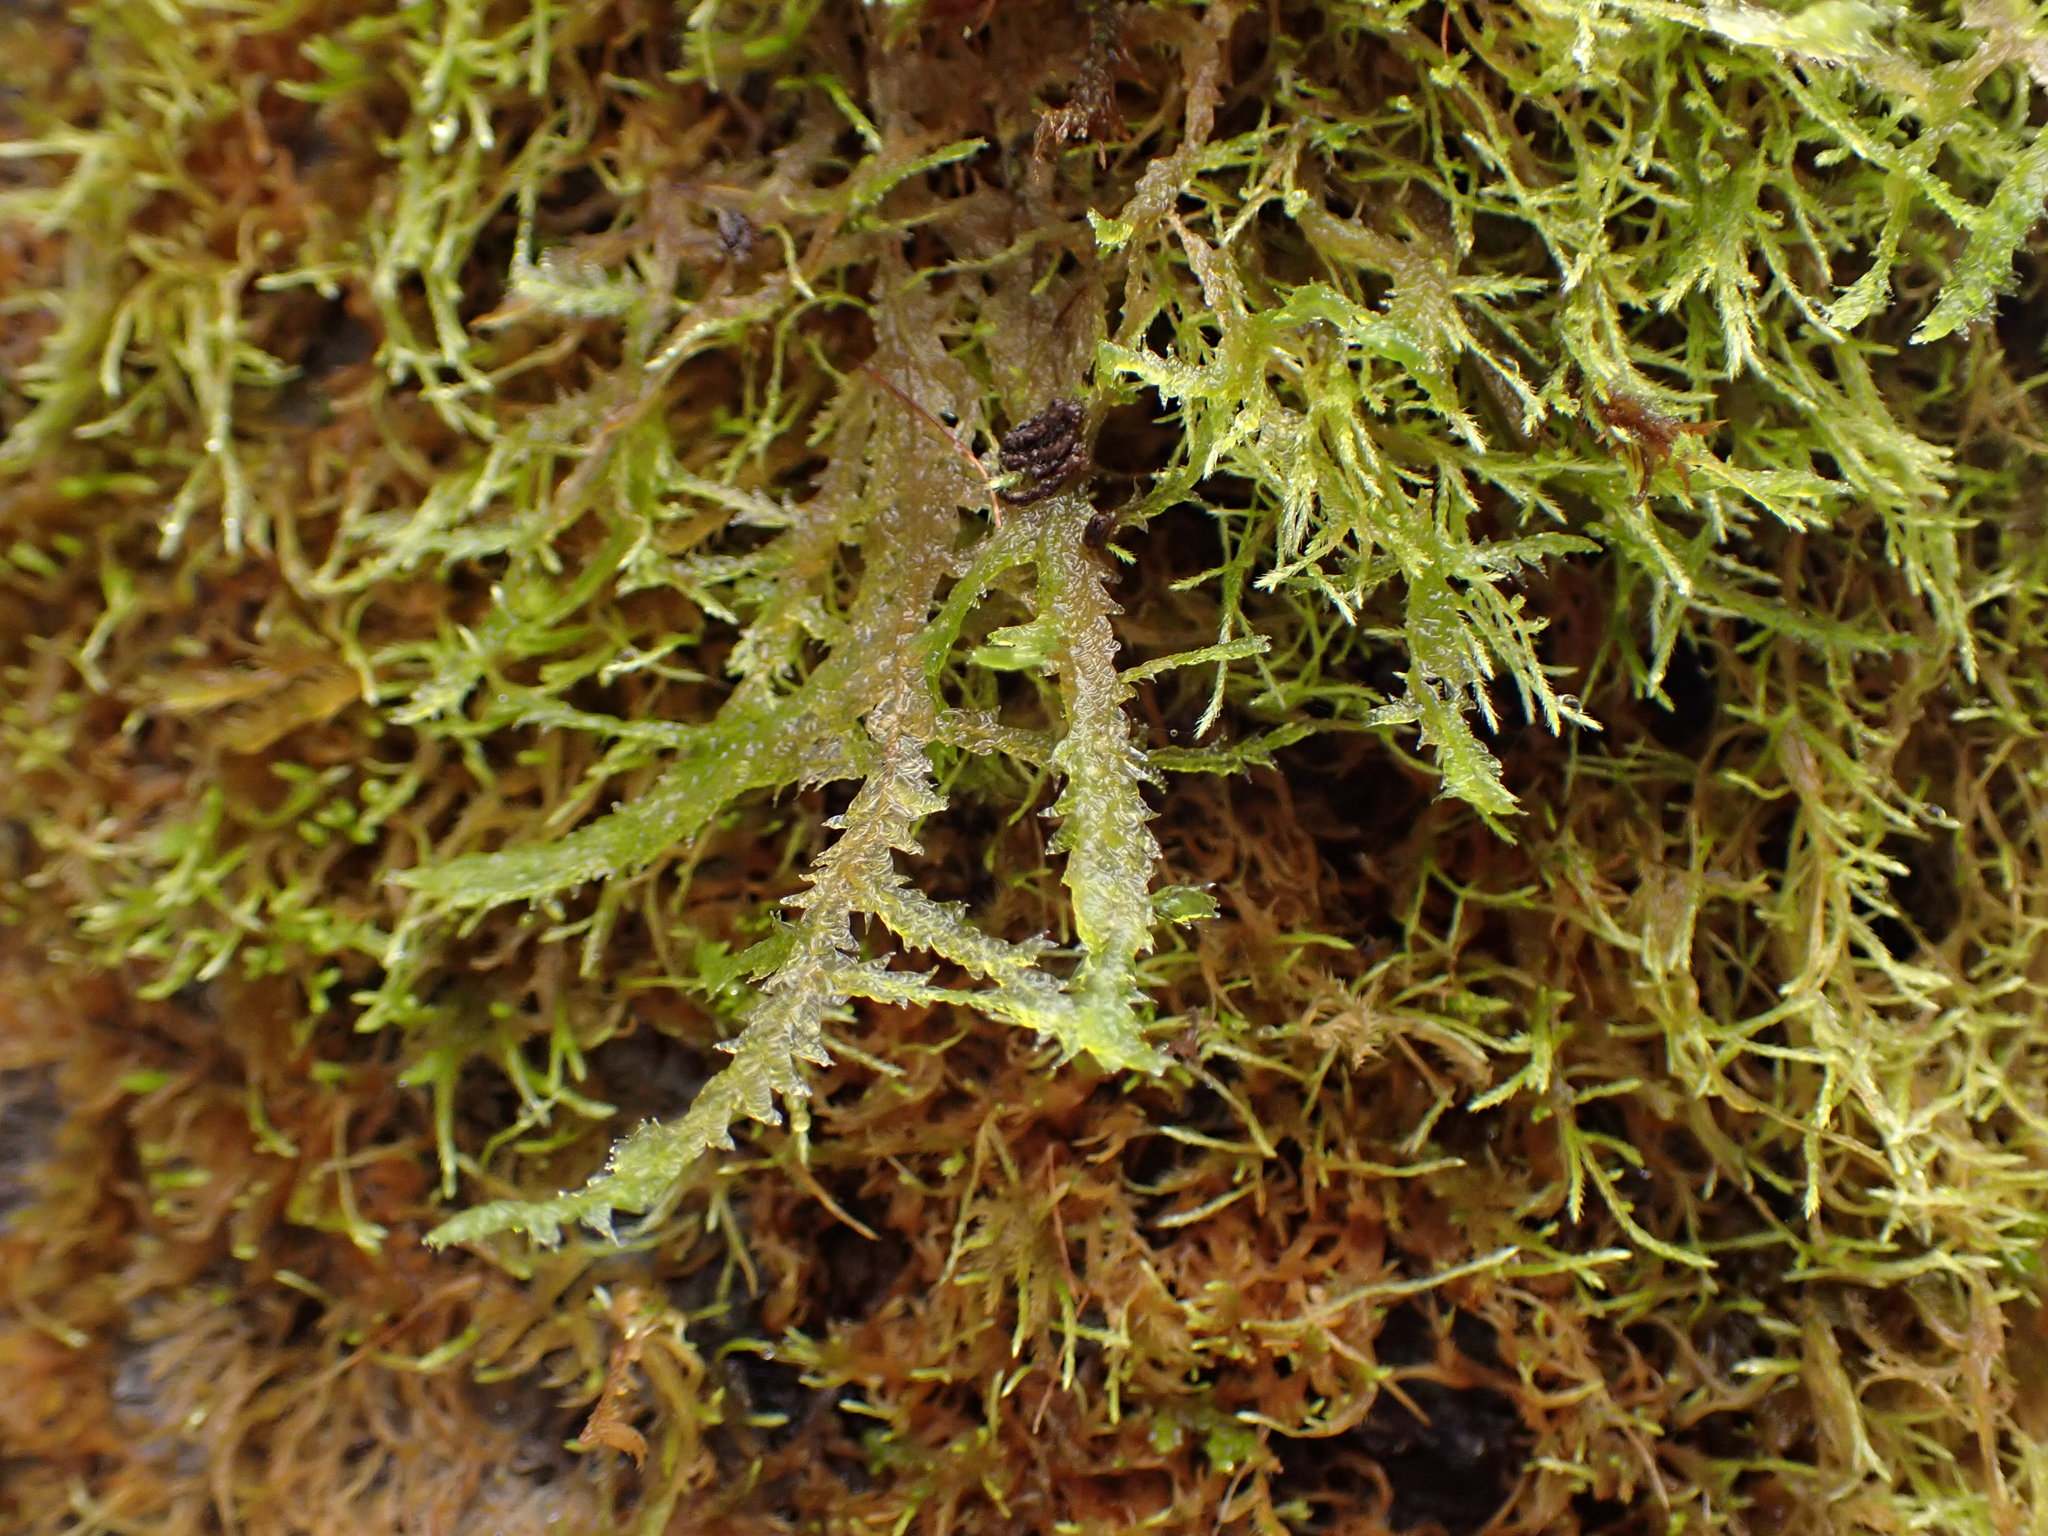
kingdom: Plantae
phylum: Bryophyta
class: Bryopsida
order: Hypnales
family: Neckeraceae
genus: Neckera
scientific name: Neckera douglasii
